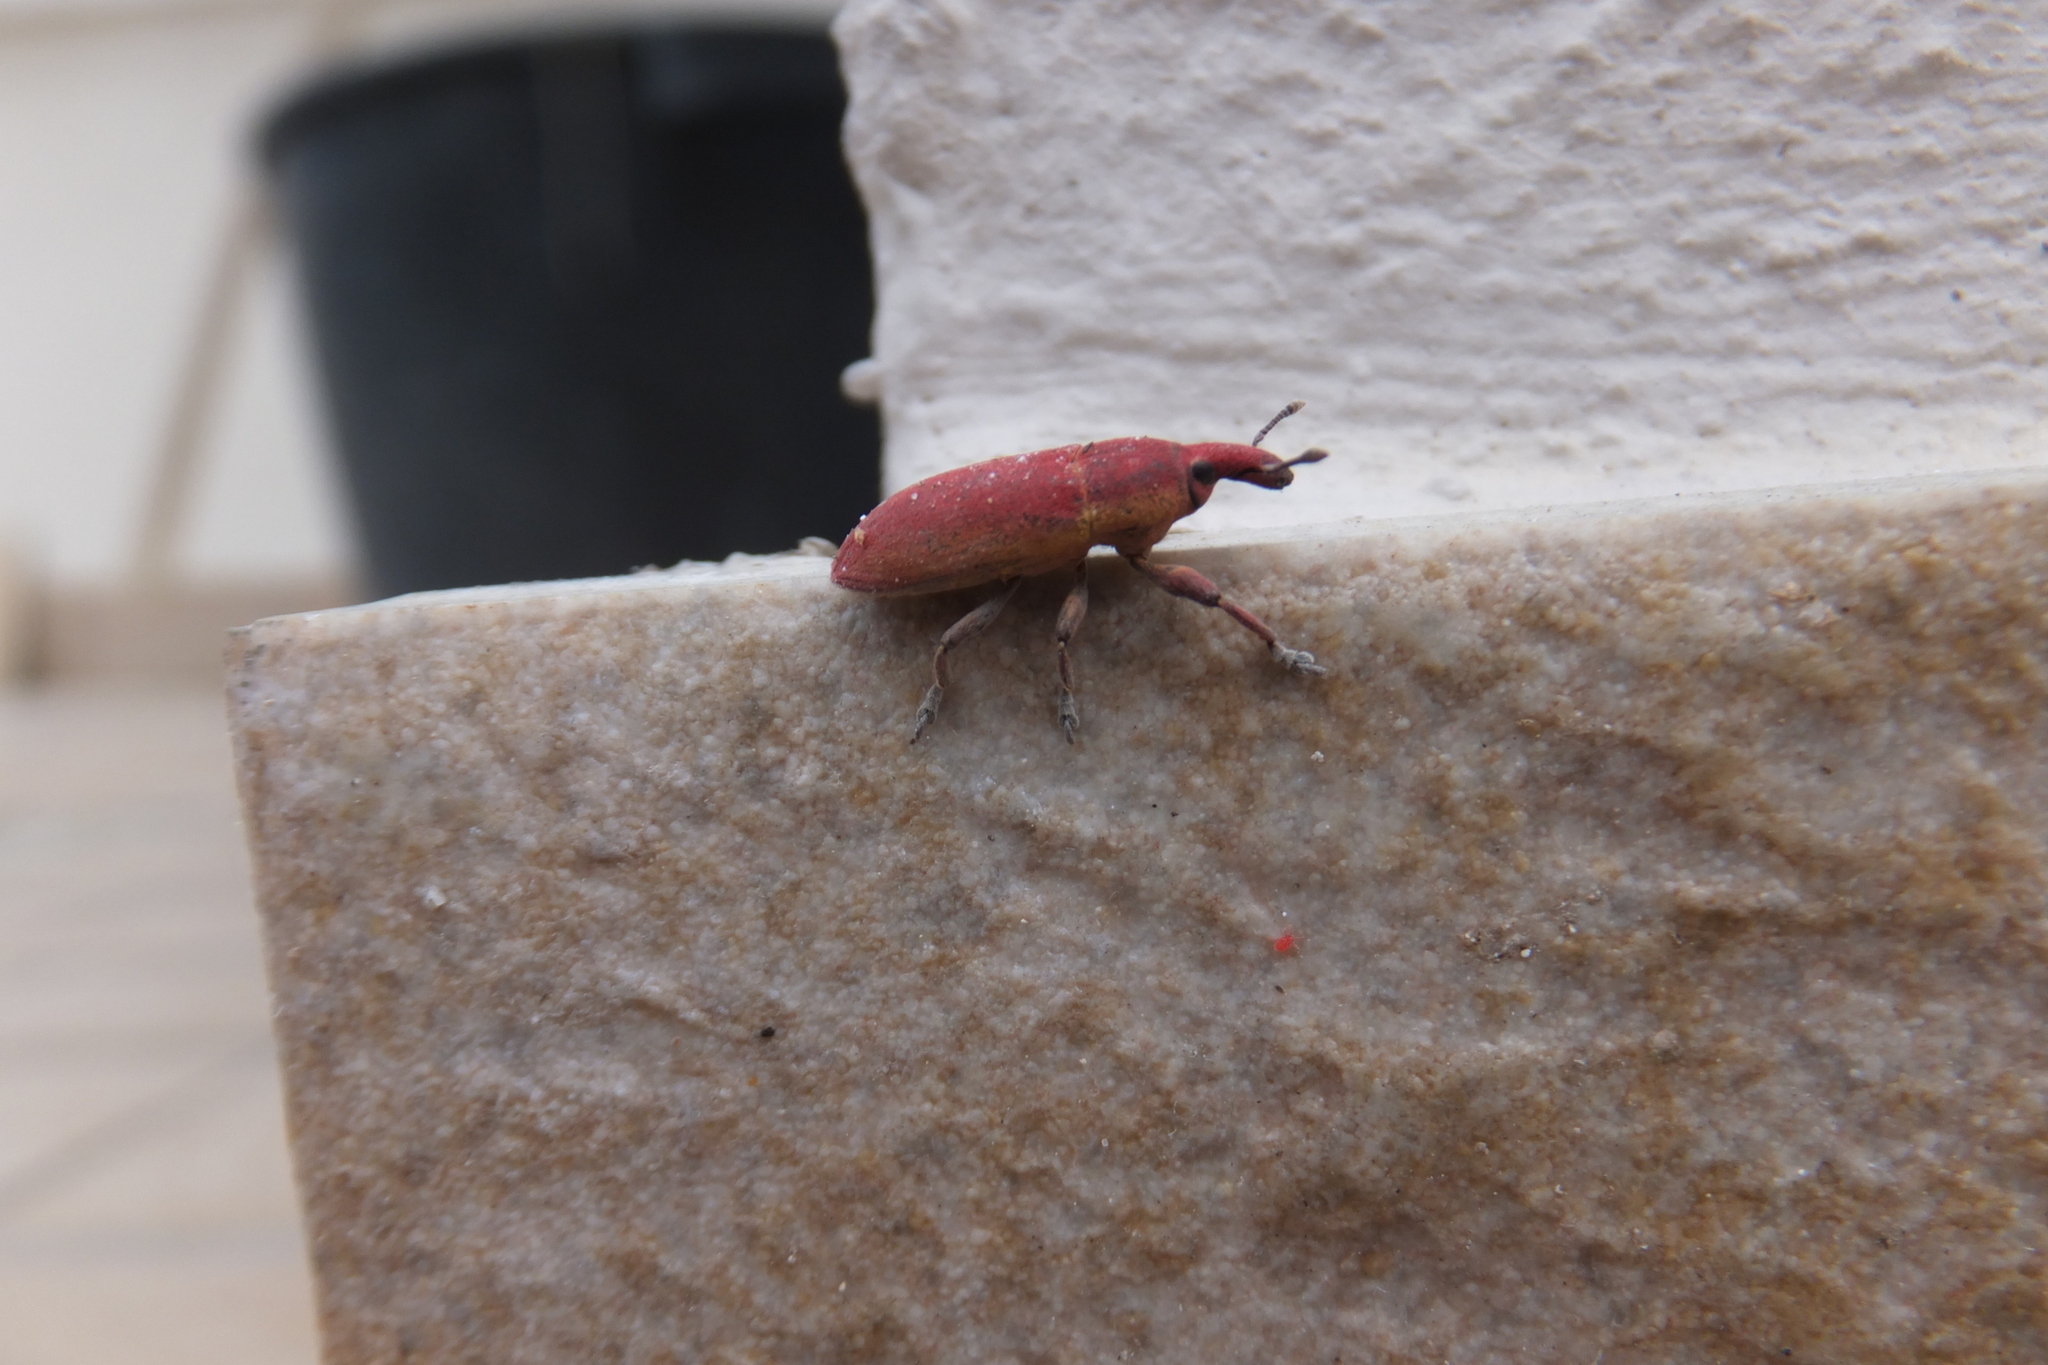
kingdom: Animalia
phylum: Arthropoda
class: Insecta
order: Coleoptera
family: Curculionidae
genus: Lixus
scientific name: Lixus angustus
